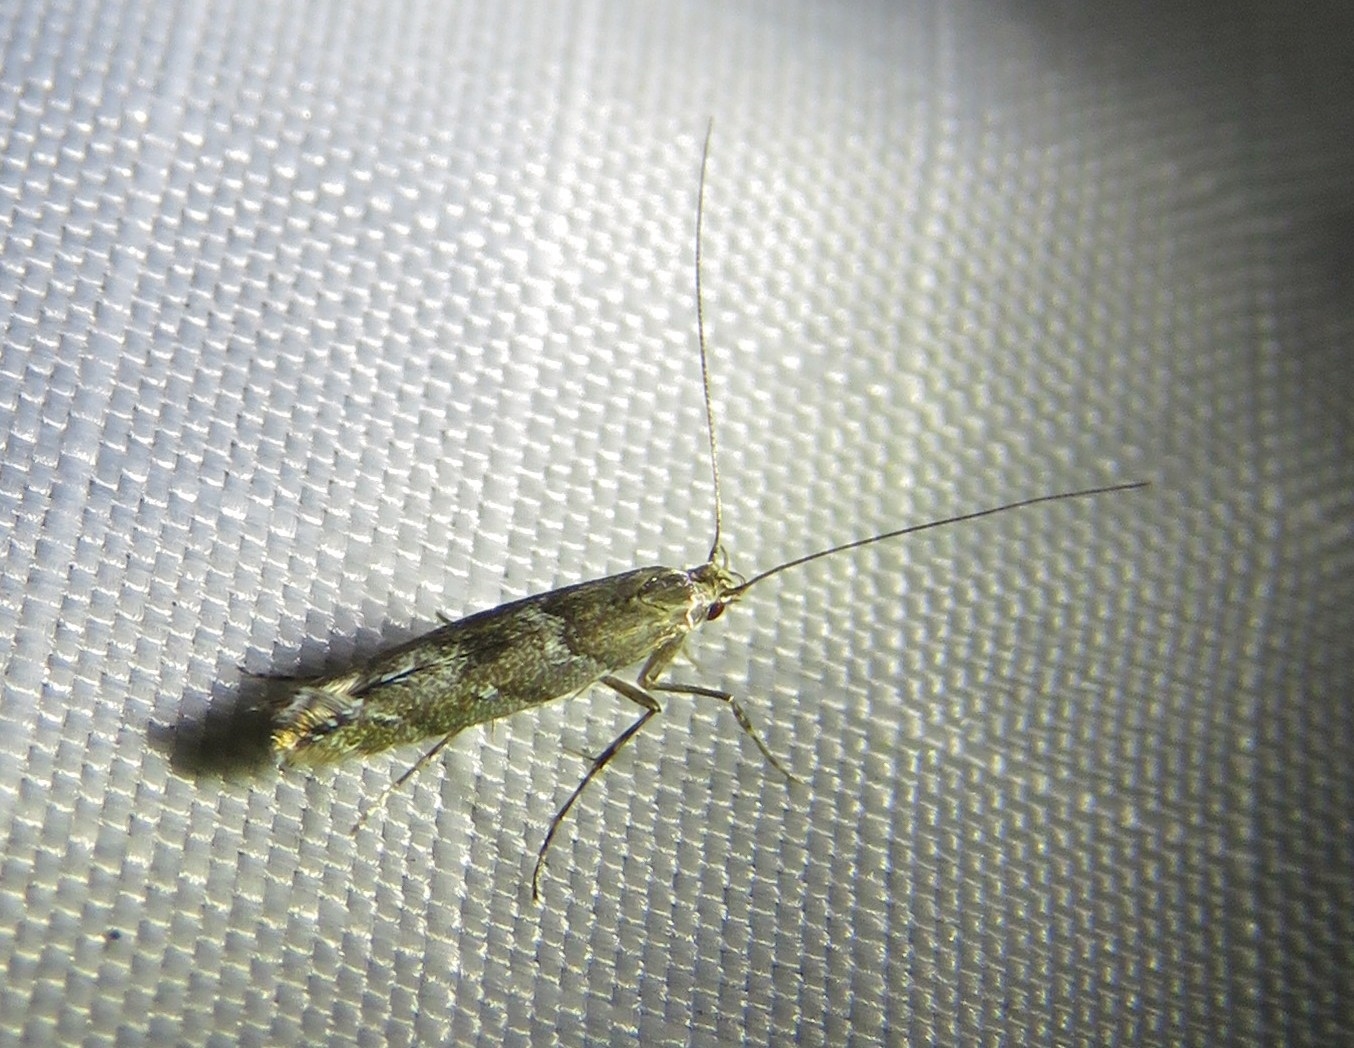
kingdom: Animalia
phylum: Arthropoda
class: Insecta
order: Lepidoptera
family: Gracillariidae
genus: Acrocercops
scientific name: Acrocercops brongniardella
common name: Brown oak slender
